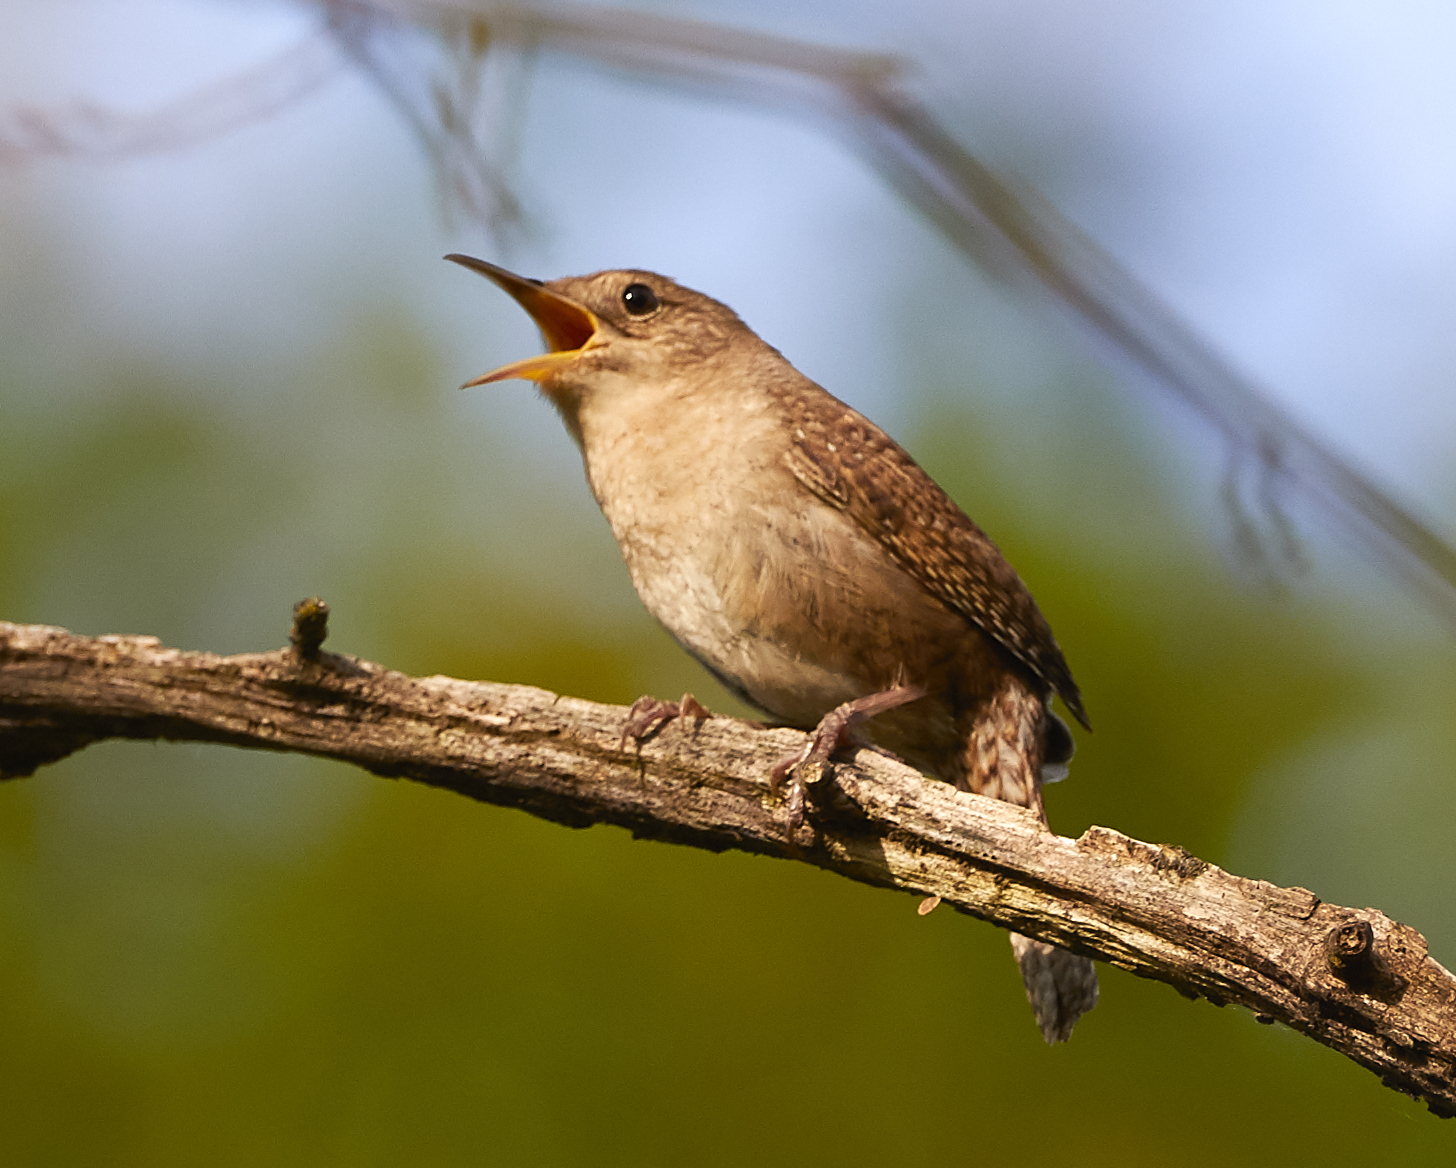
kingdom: Animalia
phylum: Chordata
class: Aves
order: Passeriformes
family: Troglodytidae
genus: Troglodytes
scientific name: Troglodytes aedon
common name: House wren
